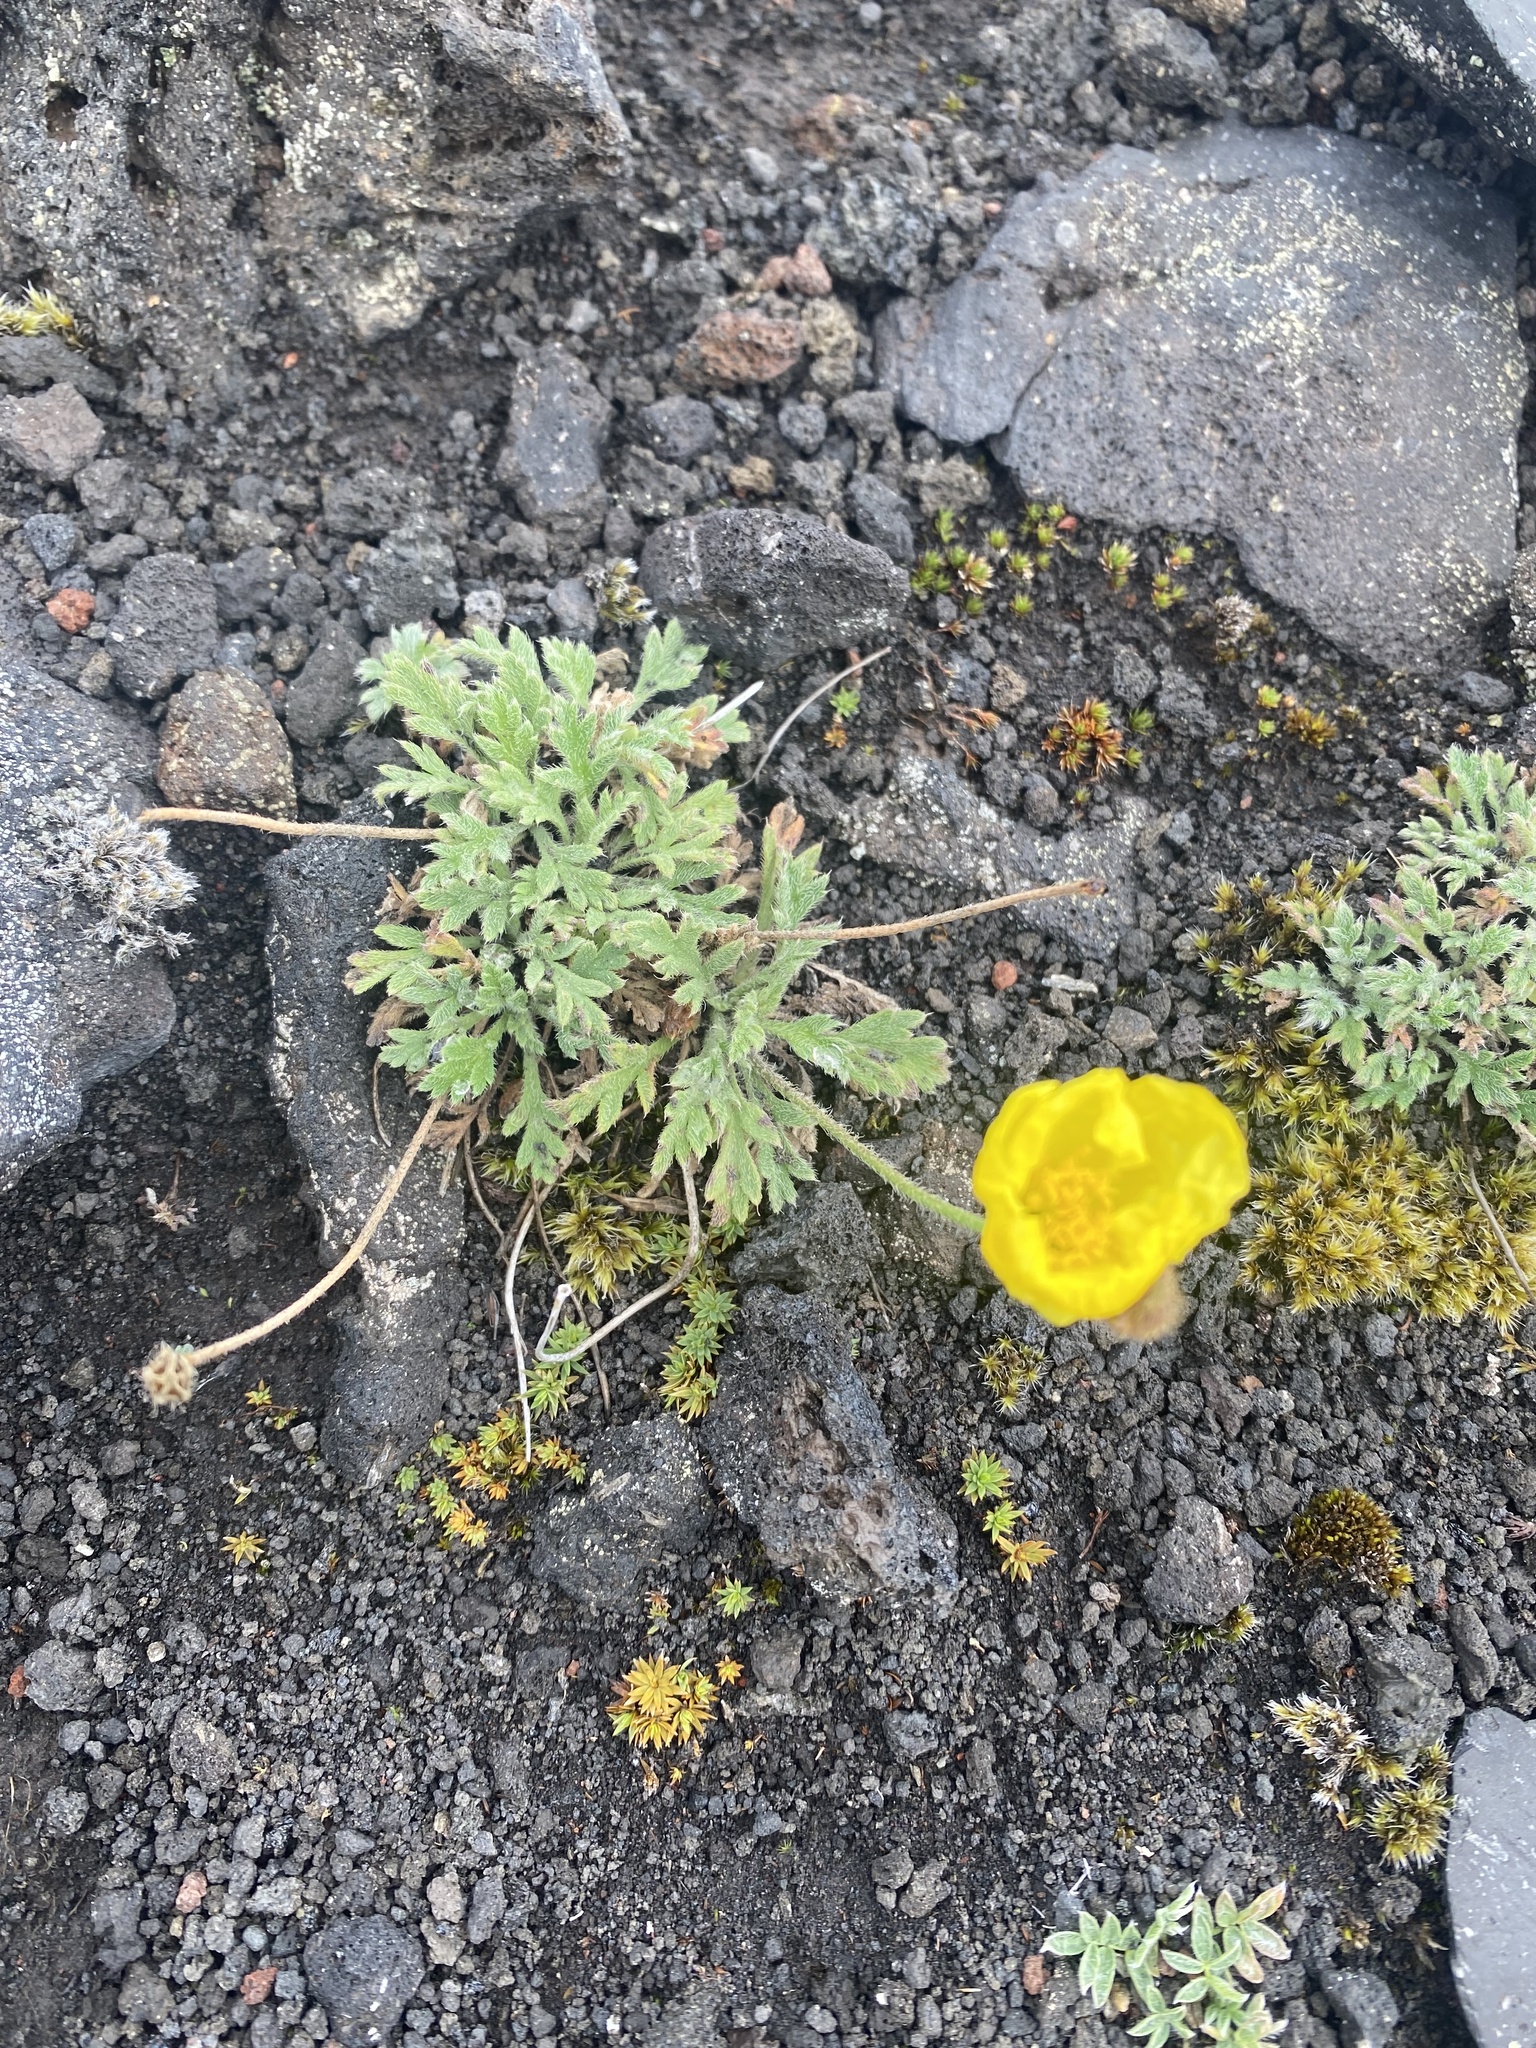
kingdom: Plantae
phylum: Tracheophyta
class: Magnoliopsida
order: Ranunculales
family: Papaveraceae
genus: Papaver
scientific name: Papaver microcarpum
